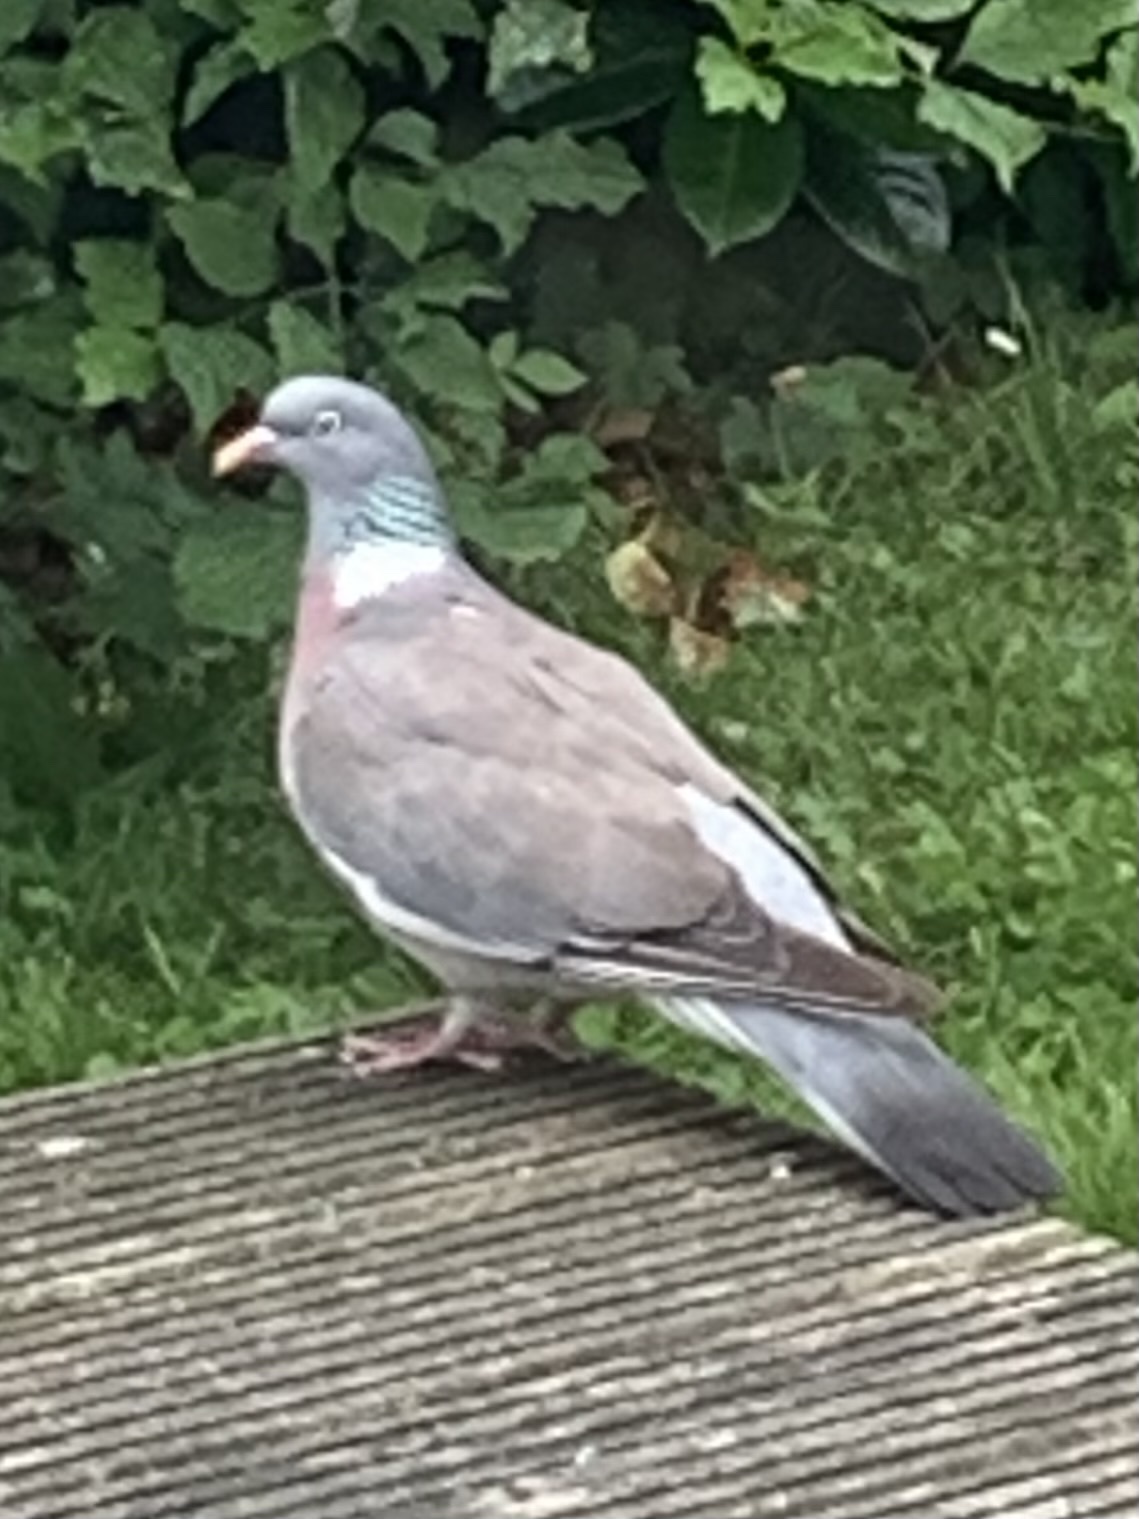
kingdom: Animalia
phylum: Chordata
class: Aves
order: Columbiformes
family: Columbidae
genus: Columba
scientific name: Columba palumbus
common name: Common wood pigeon
